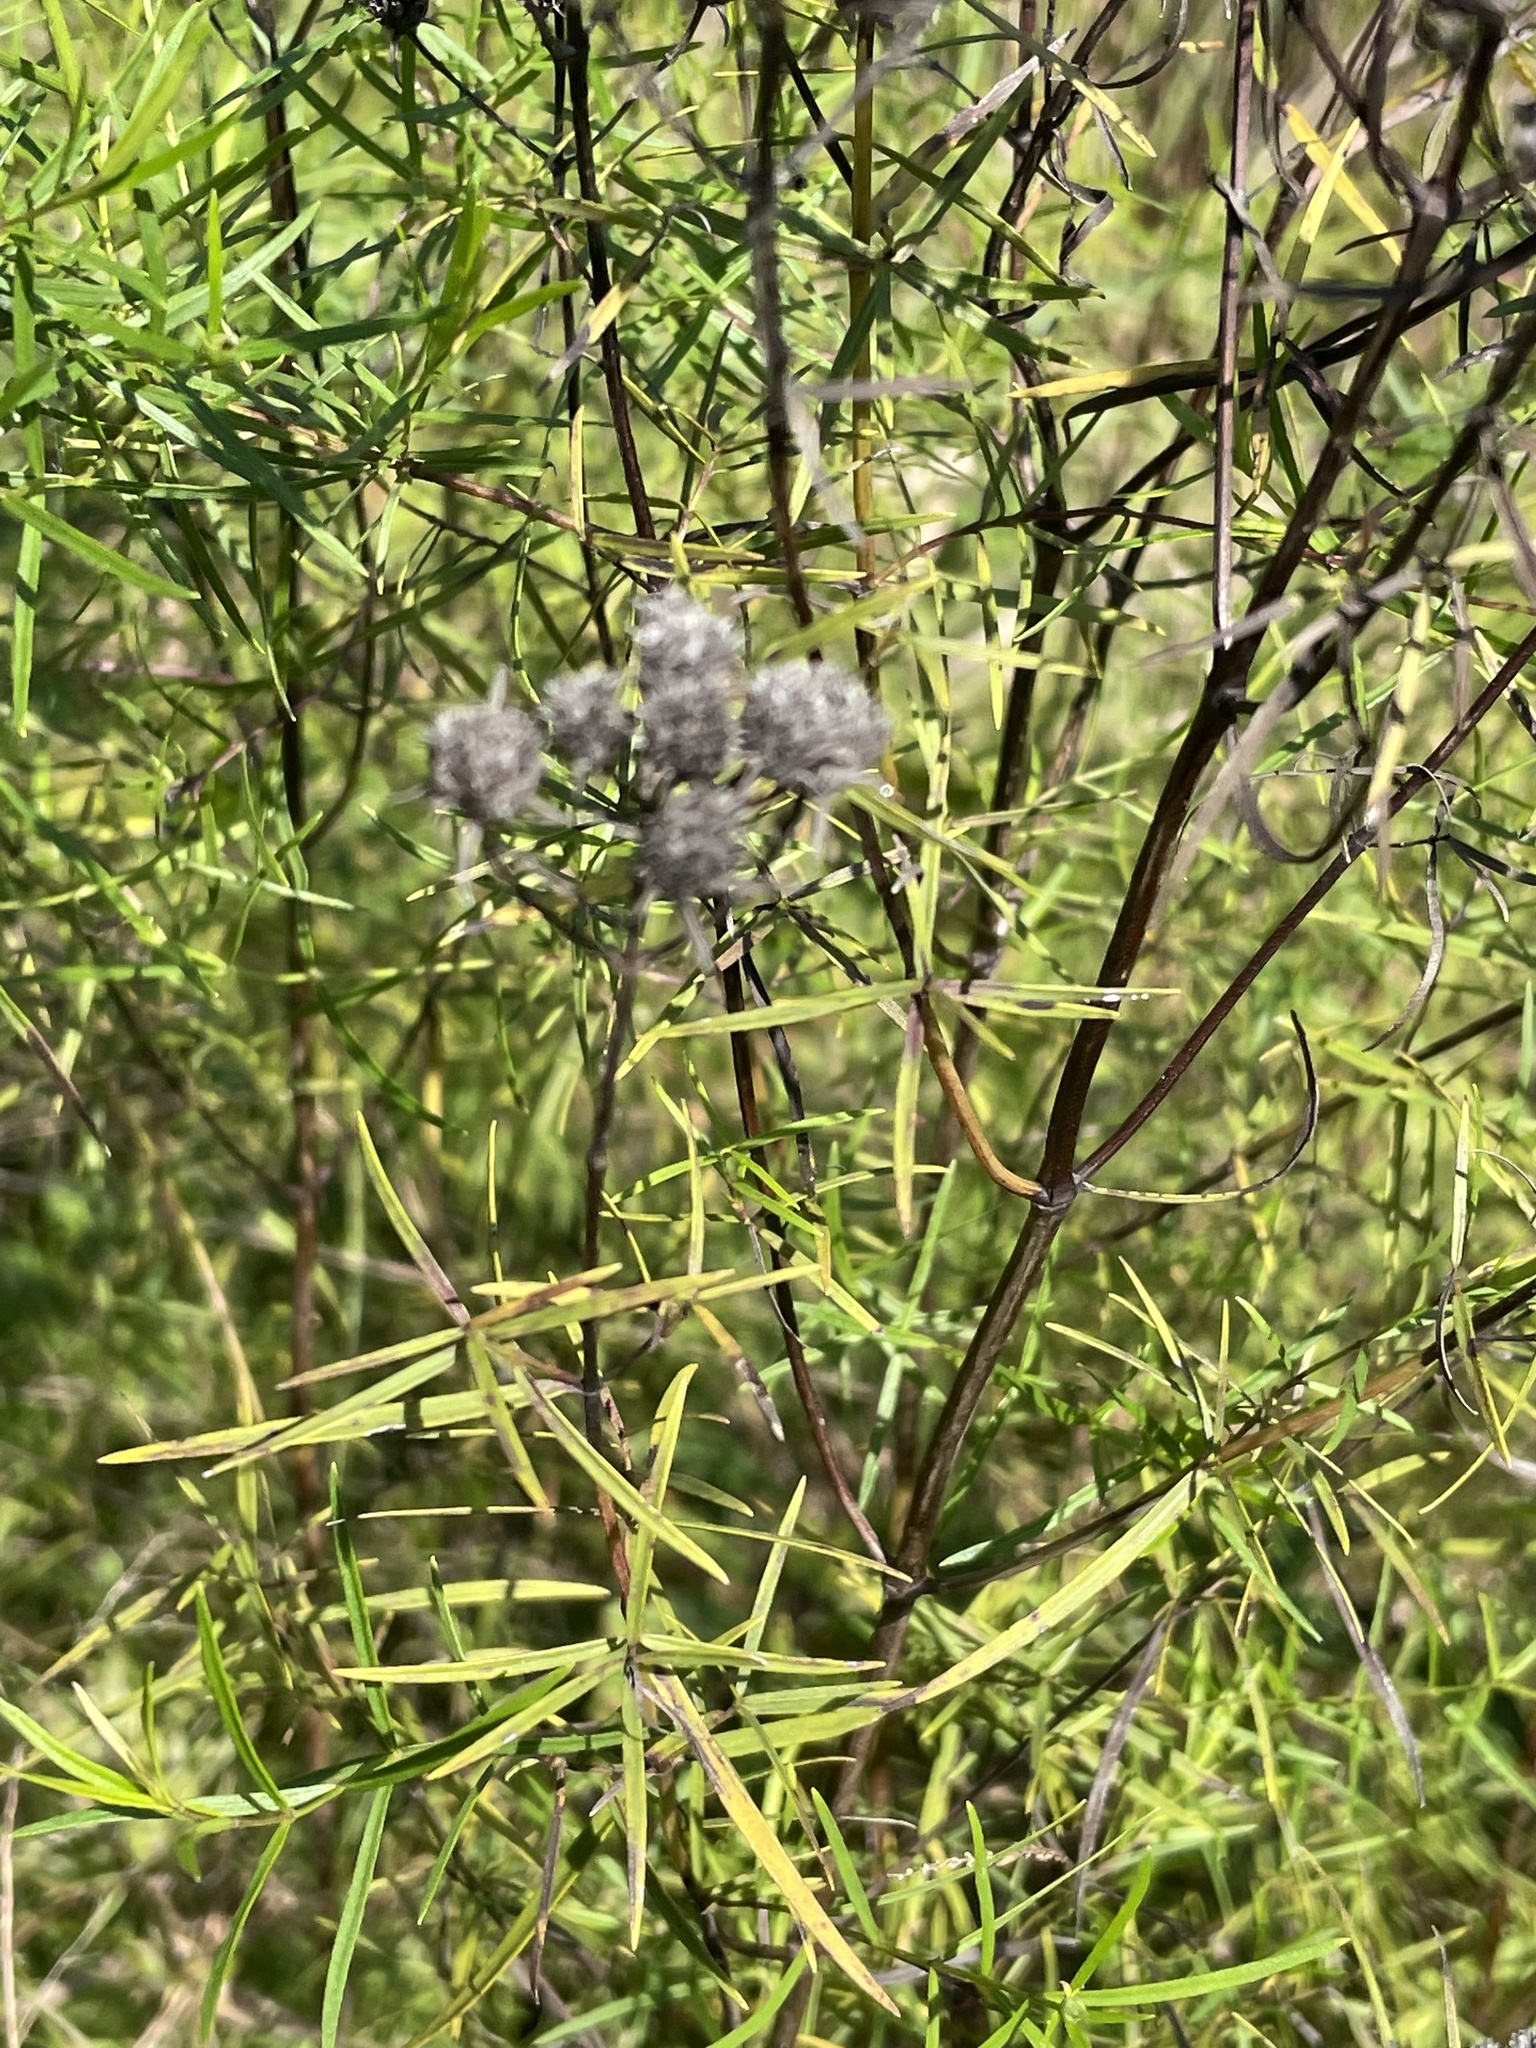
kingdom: Plantae
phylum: Tracheophyta
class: Magnoliopsida
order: Lamiales
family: Lamiaceae
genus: Pycnanthemum
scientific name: Pycnanthemum tenuifolium
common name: Narrow-leaf mountain-mint
